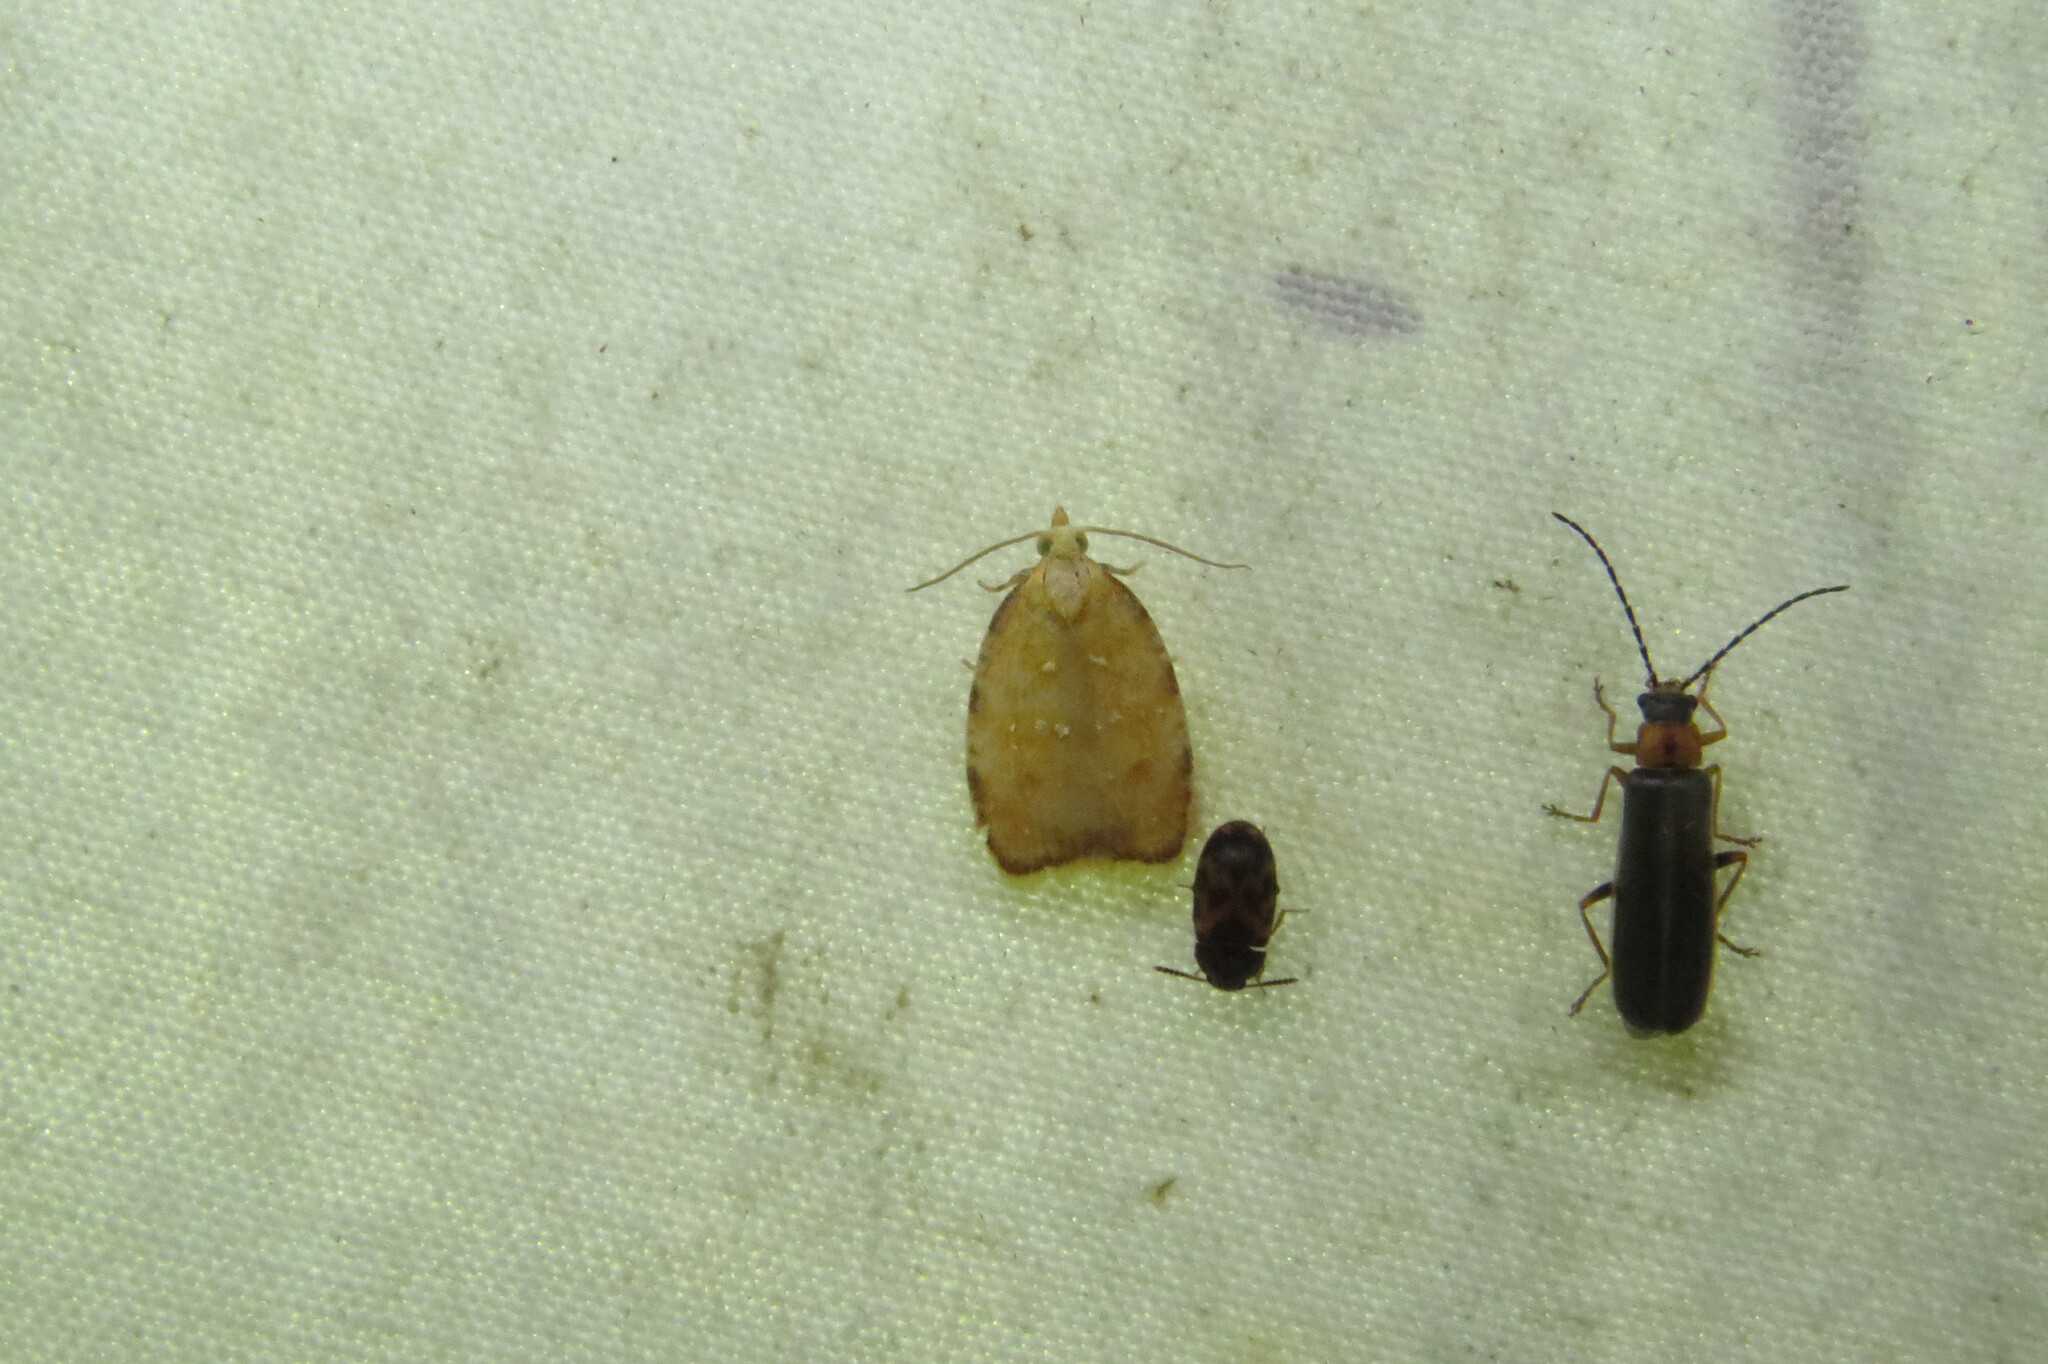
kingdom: Animalia
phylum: Arthropoda
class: Insecta
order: Lepidoptera
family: Tortricidae
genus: Acleris
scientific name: Acleris curvalana
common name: Blueberry leaftier moth
